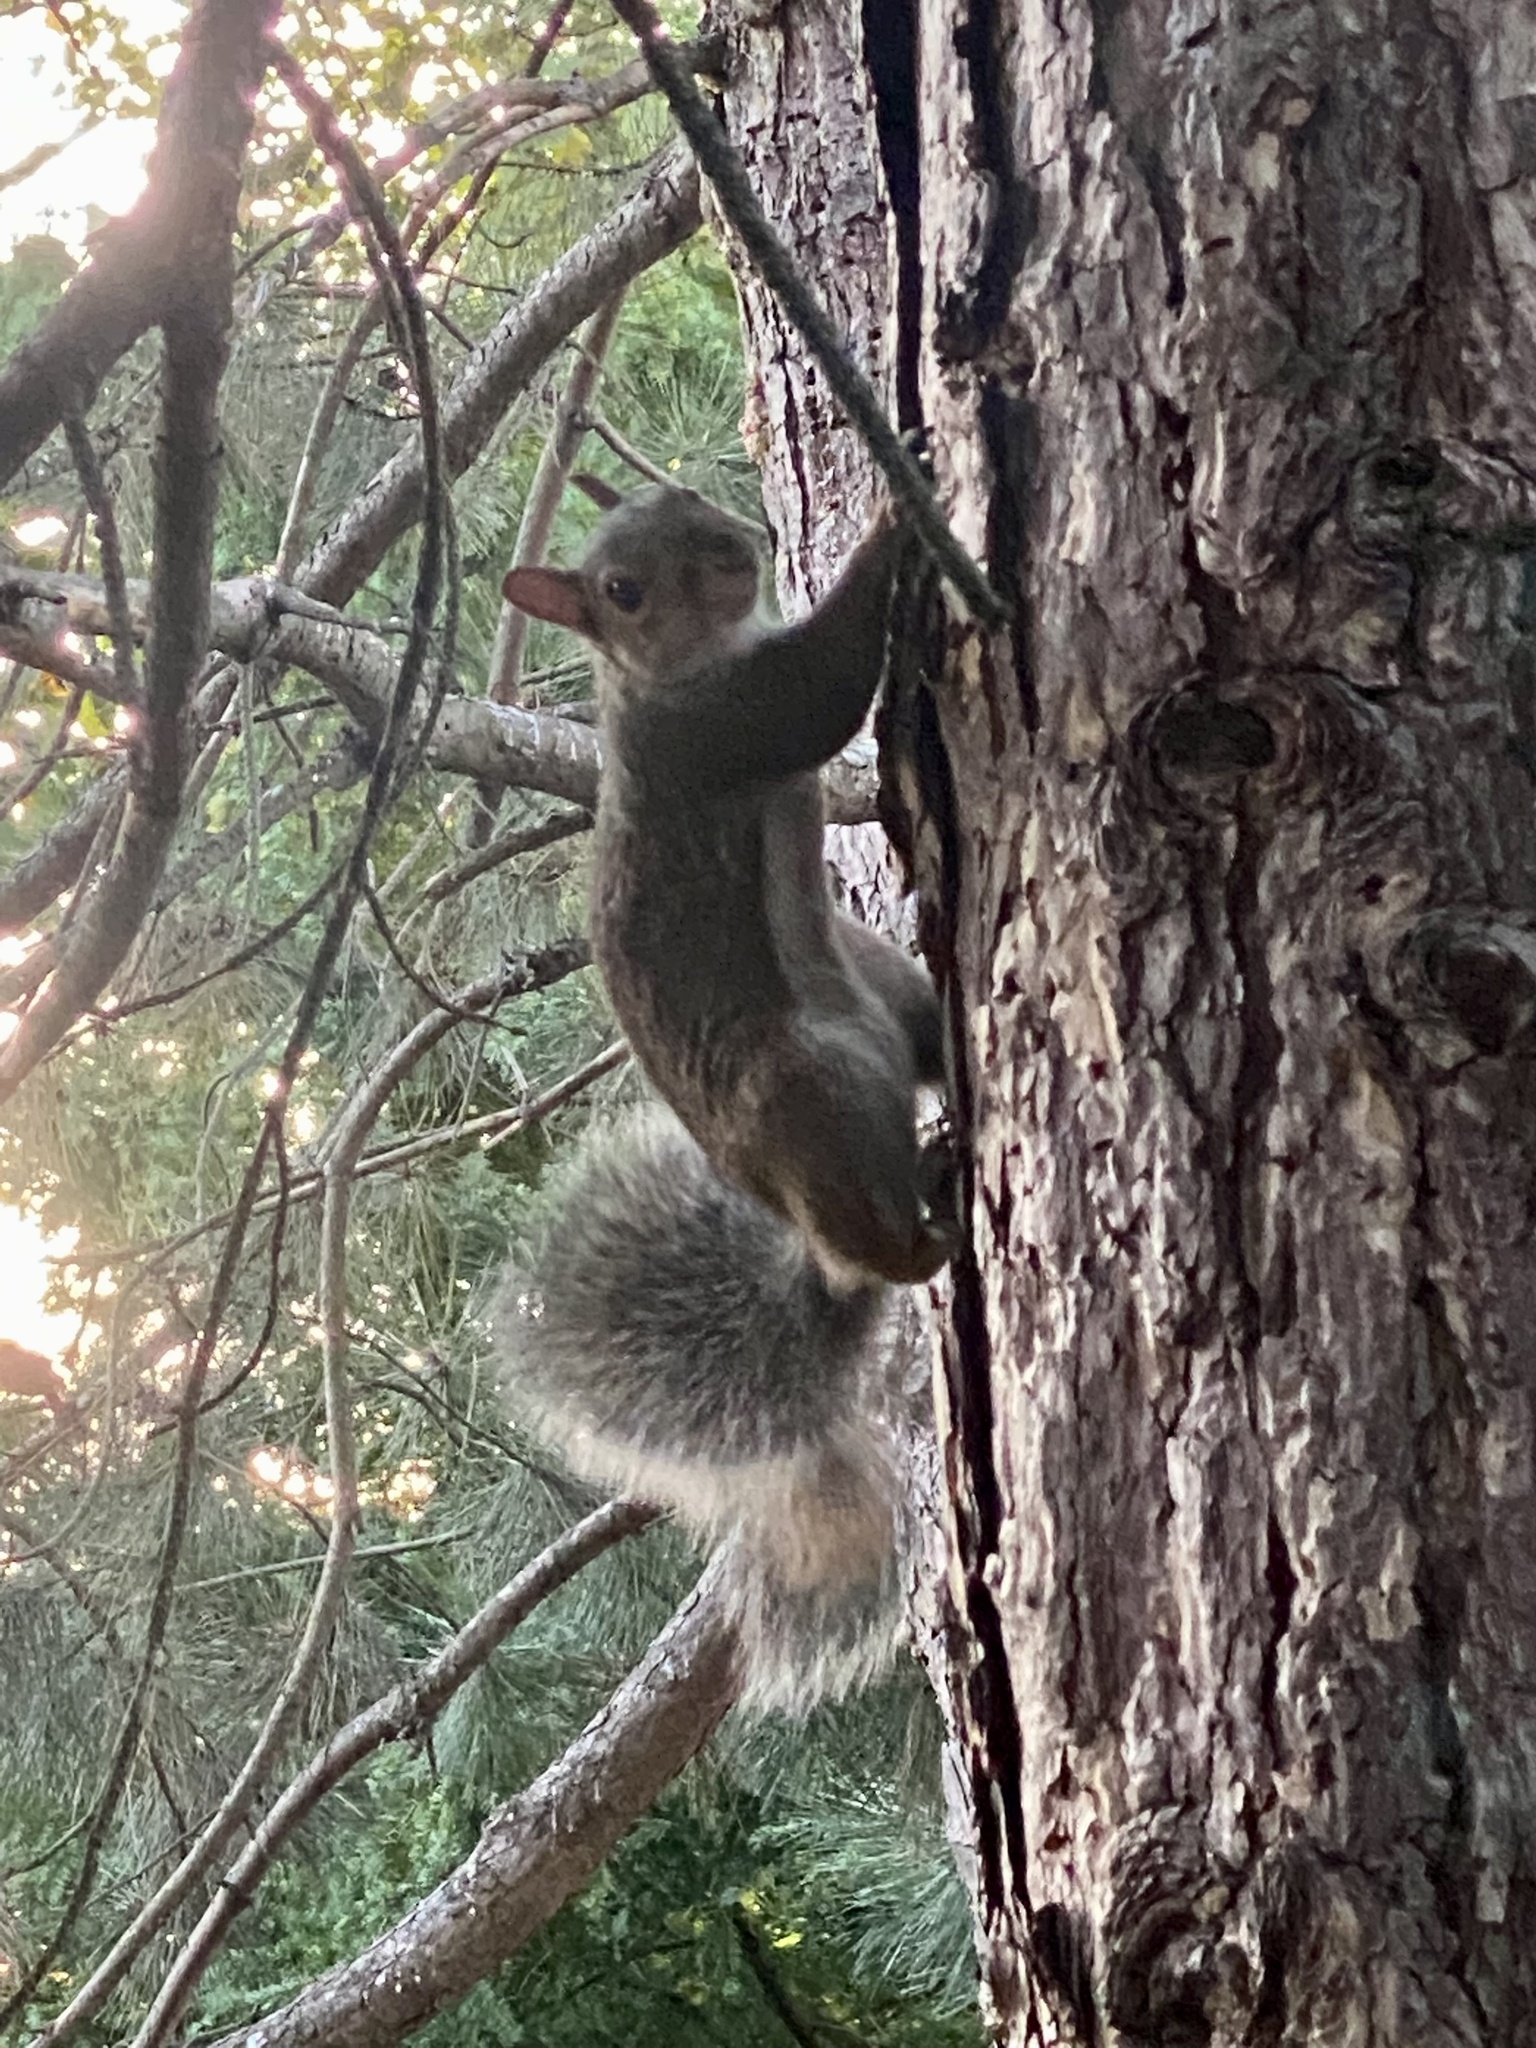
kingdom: Animalia
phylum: Chordata
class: Mammalia
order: Rodentia
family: Sciuridae
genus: Sciurus
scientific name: Sciurus carolinensis
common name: Eastern gray squirrel
